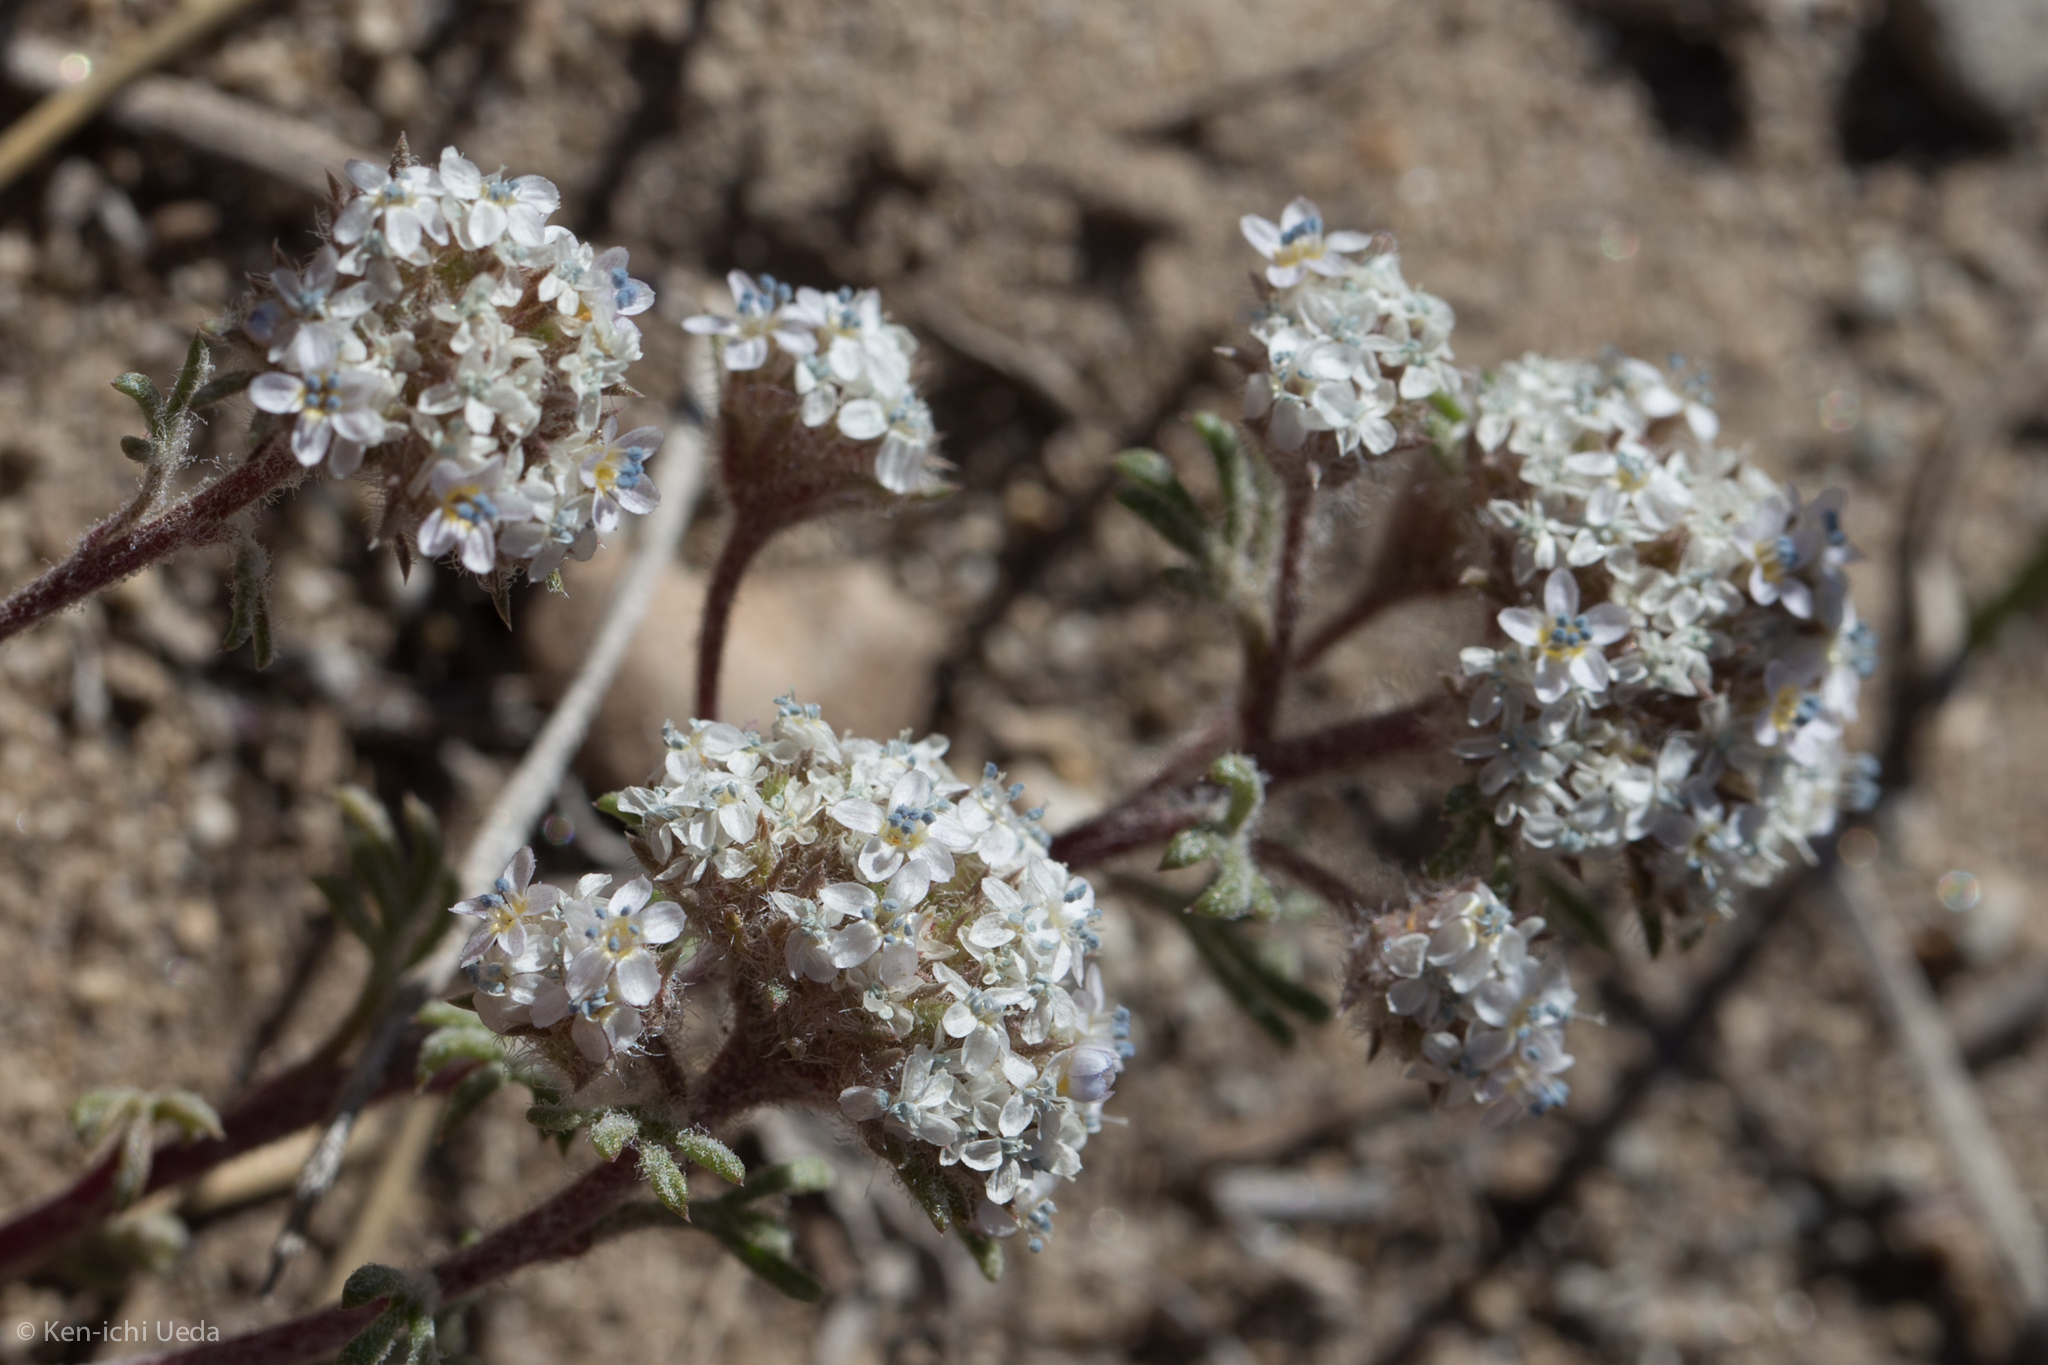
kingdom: Plantae
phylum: Tracheophyta
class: Magnoliopsida
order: Ericales
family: Polemoniaceae
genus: Ipomopsis
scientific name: Ipomopsis congesta
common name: Ball-head gilia
